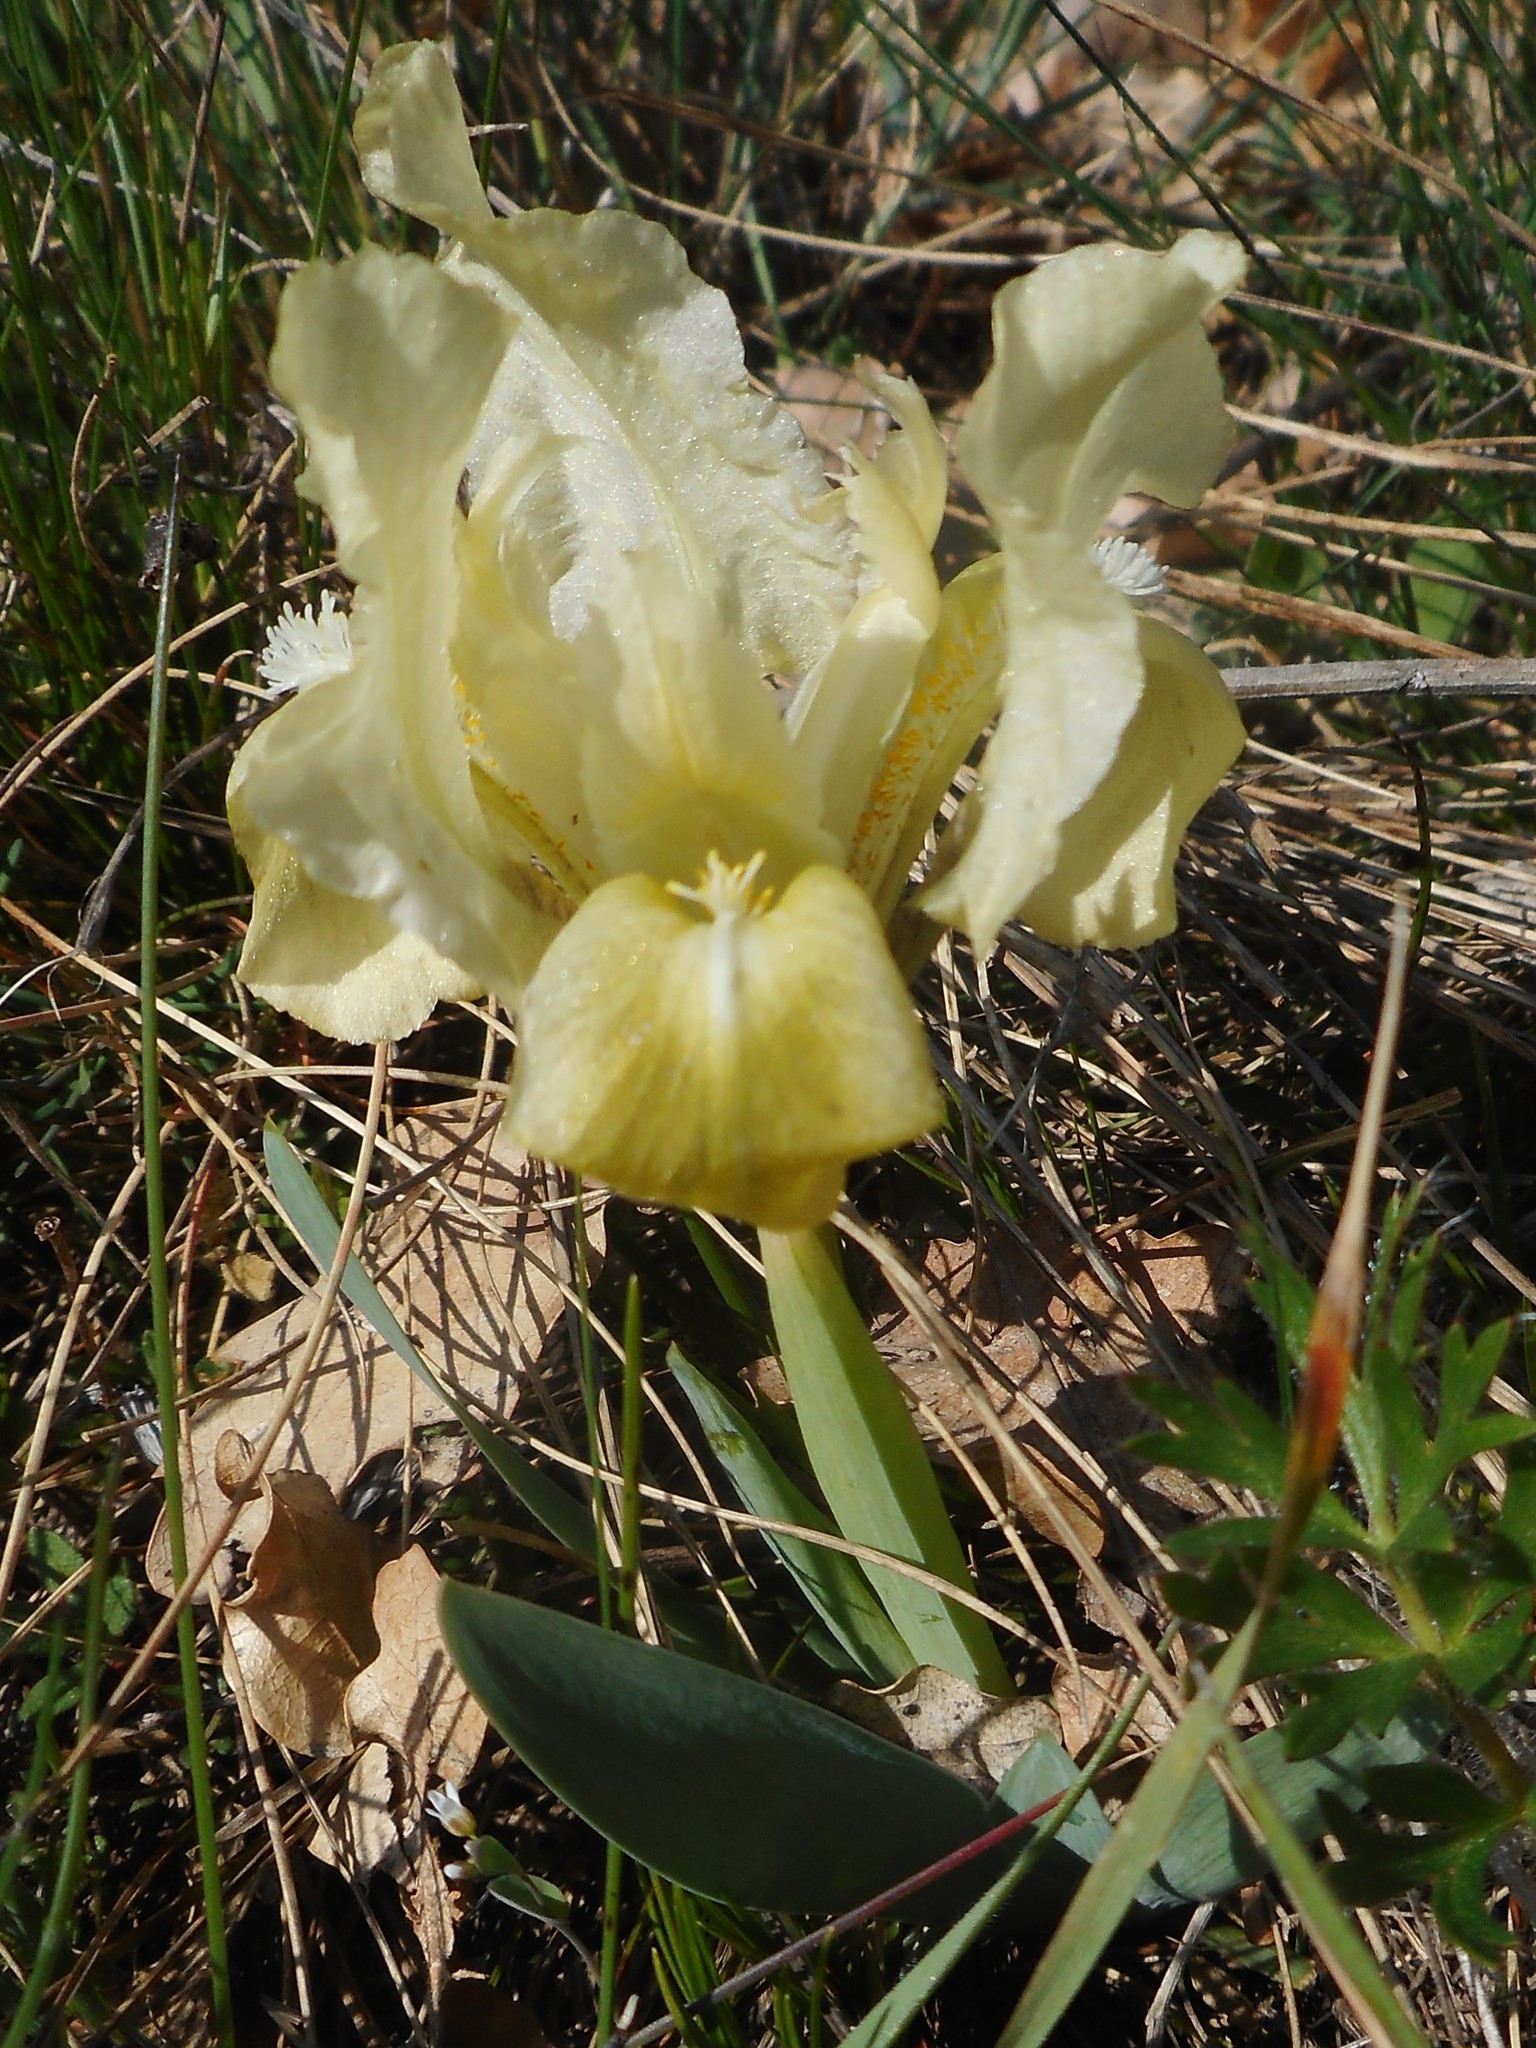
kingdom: Plantae
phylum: Tracheophyta
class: Liliopsida
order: Asparagales
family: Iridaceae
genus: Iris
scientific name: Iris pumila
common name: Dwarf iris
